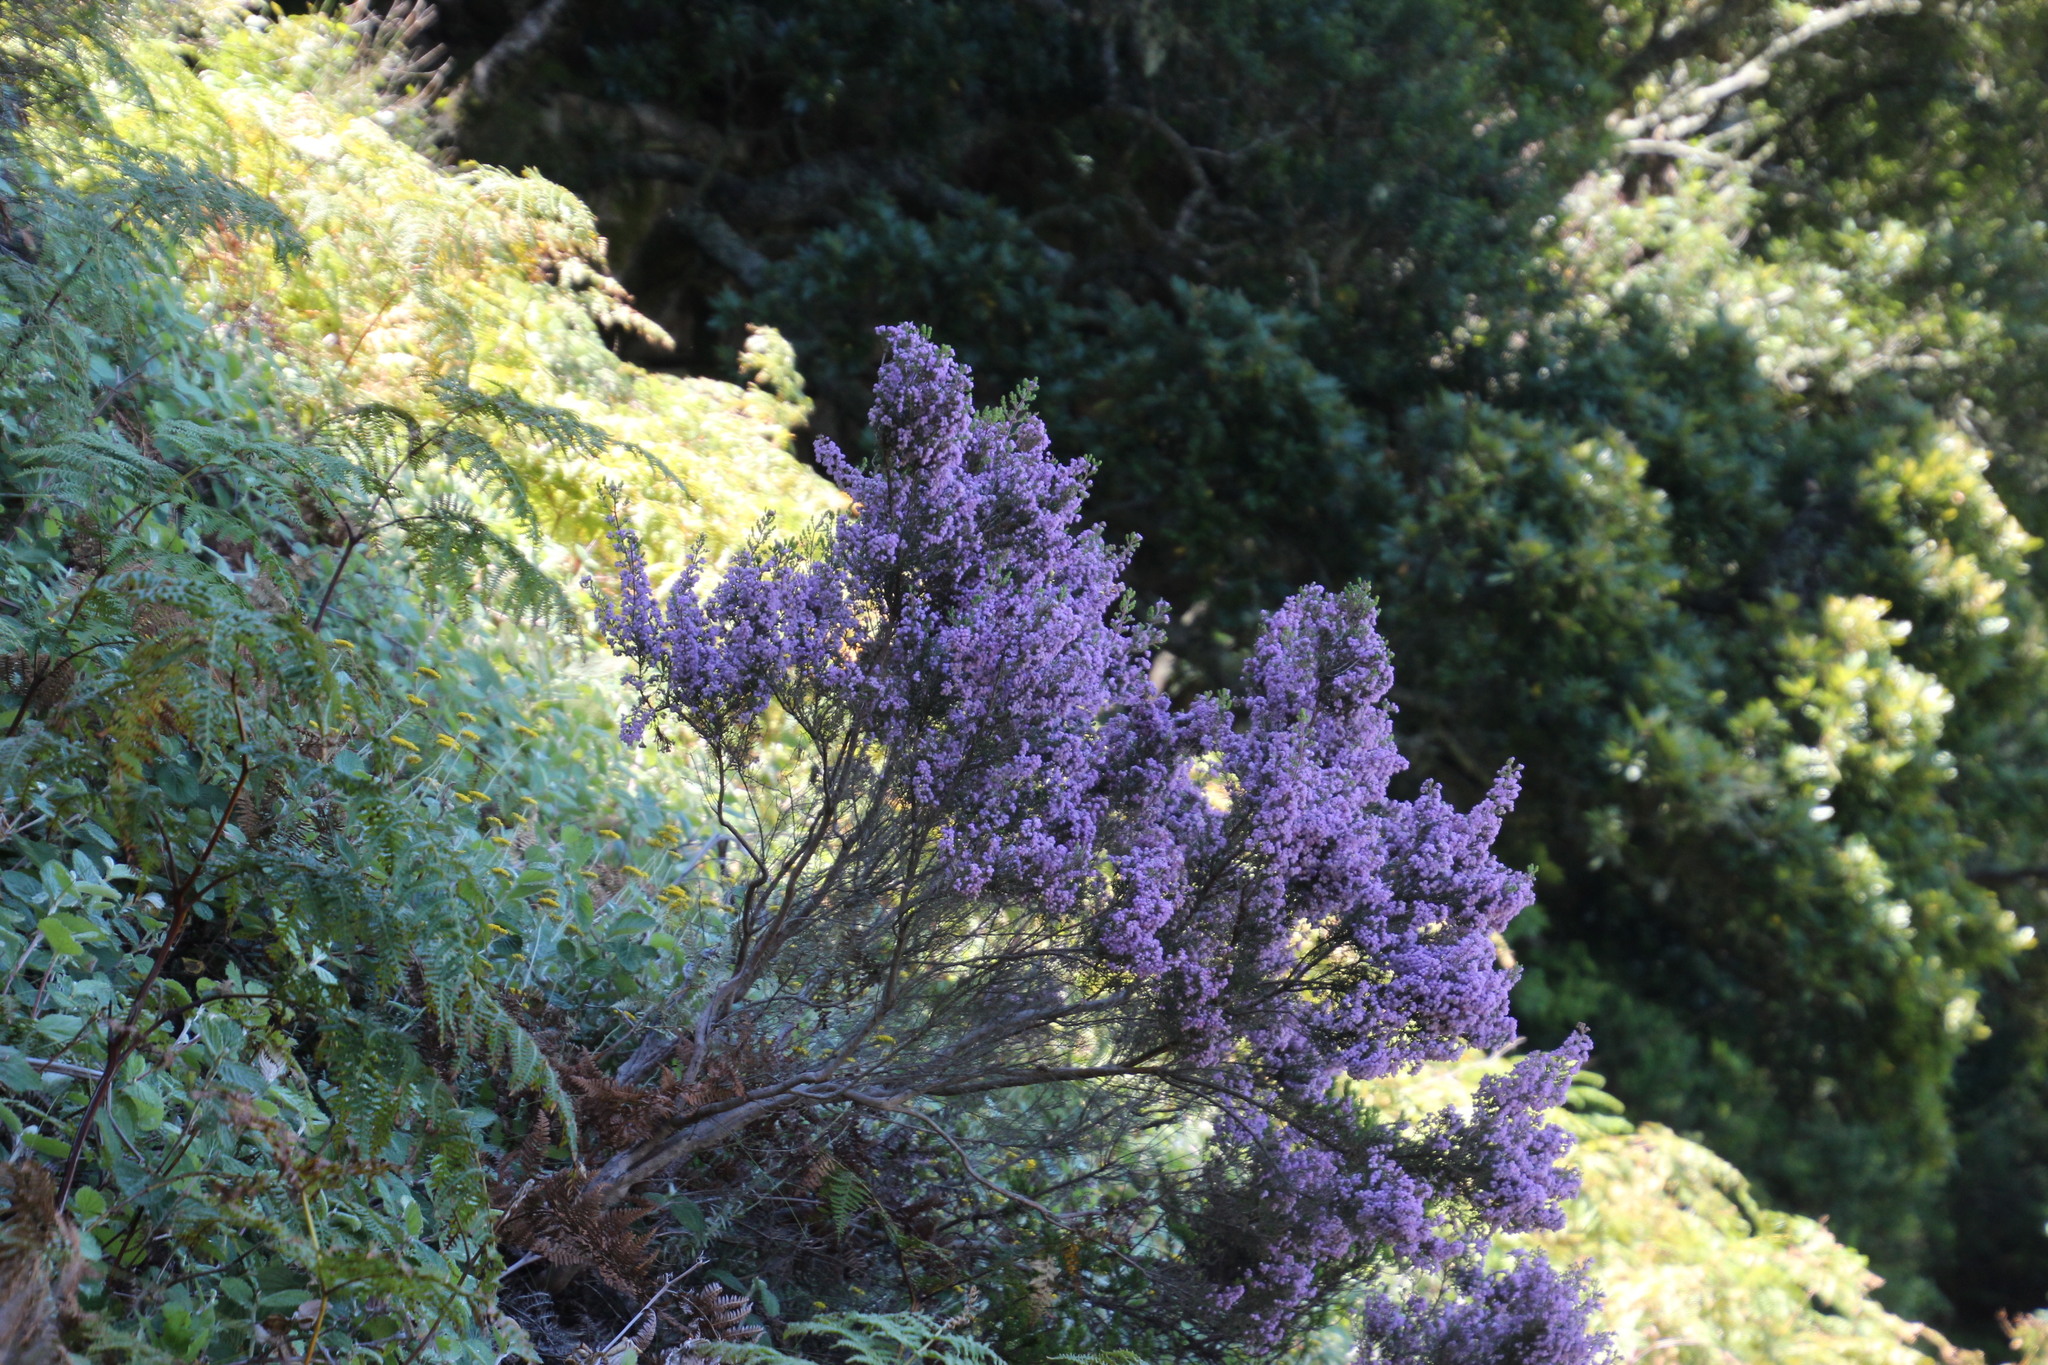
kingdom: Plantae
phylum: Tracheophyta
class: Magnoliopsida
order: Ericales
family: Ericaceae
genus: Erica
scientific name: Erica hirtiflora
